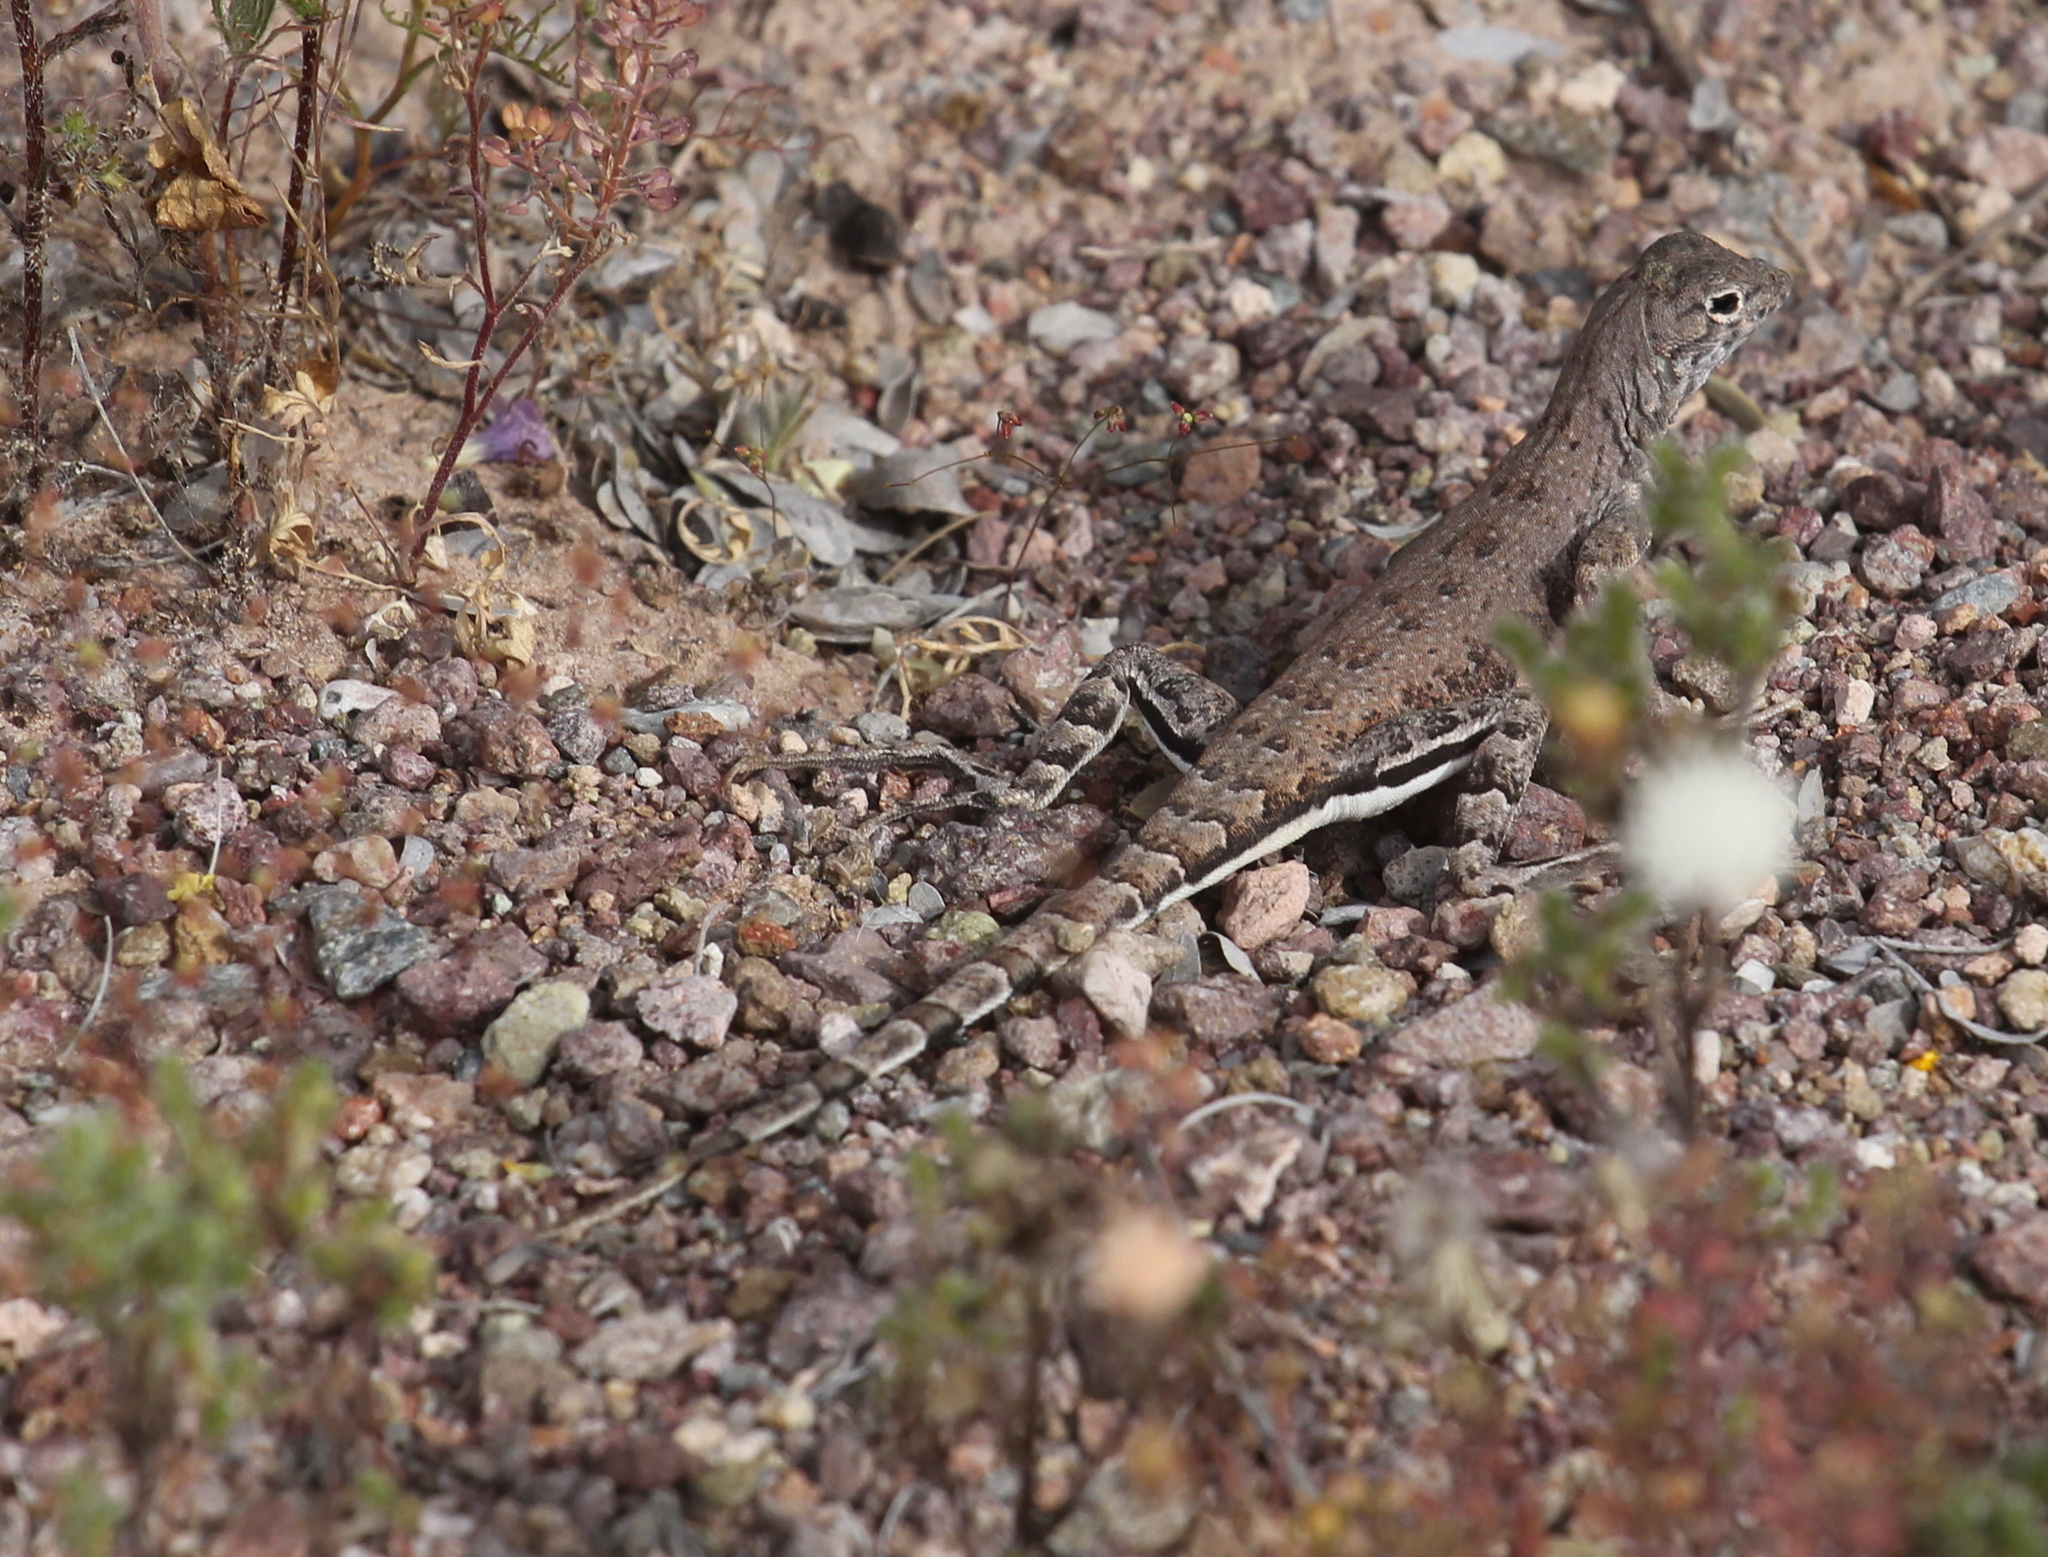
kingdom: Animalia
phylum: Chordata
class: Squamata
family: Phrynosomatidae
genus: Callisaurus
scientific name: Callisaurus draconoides
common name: Zebra-tailed lizard
